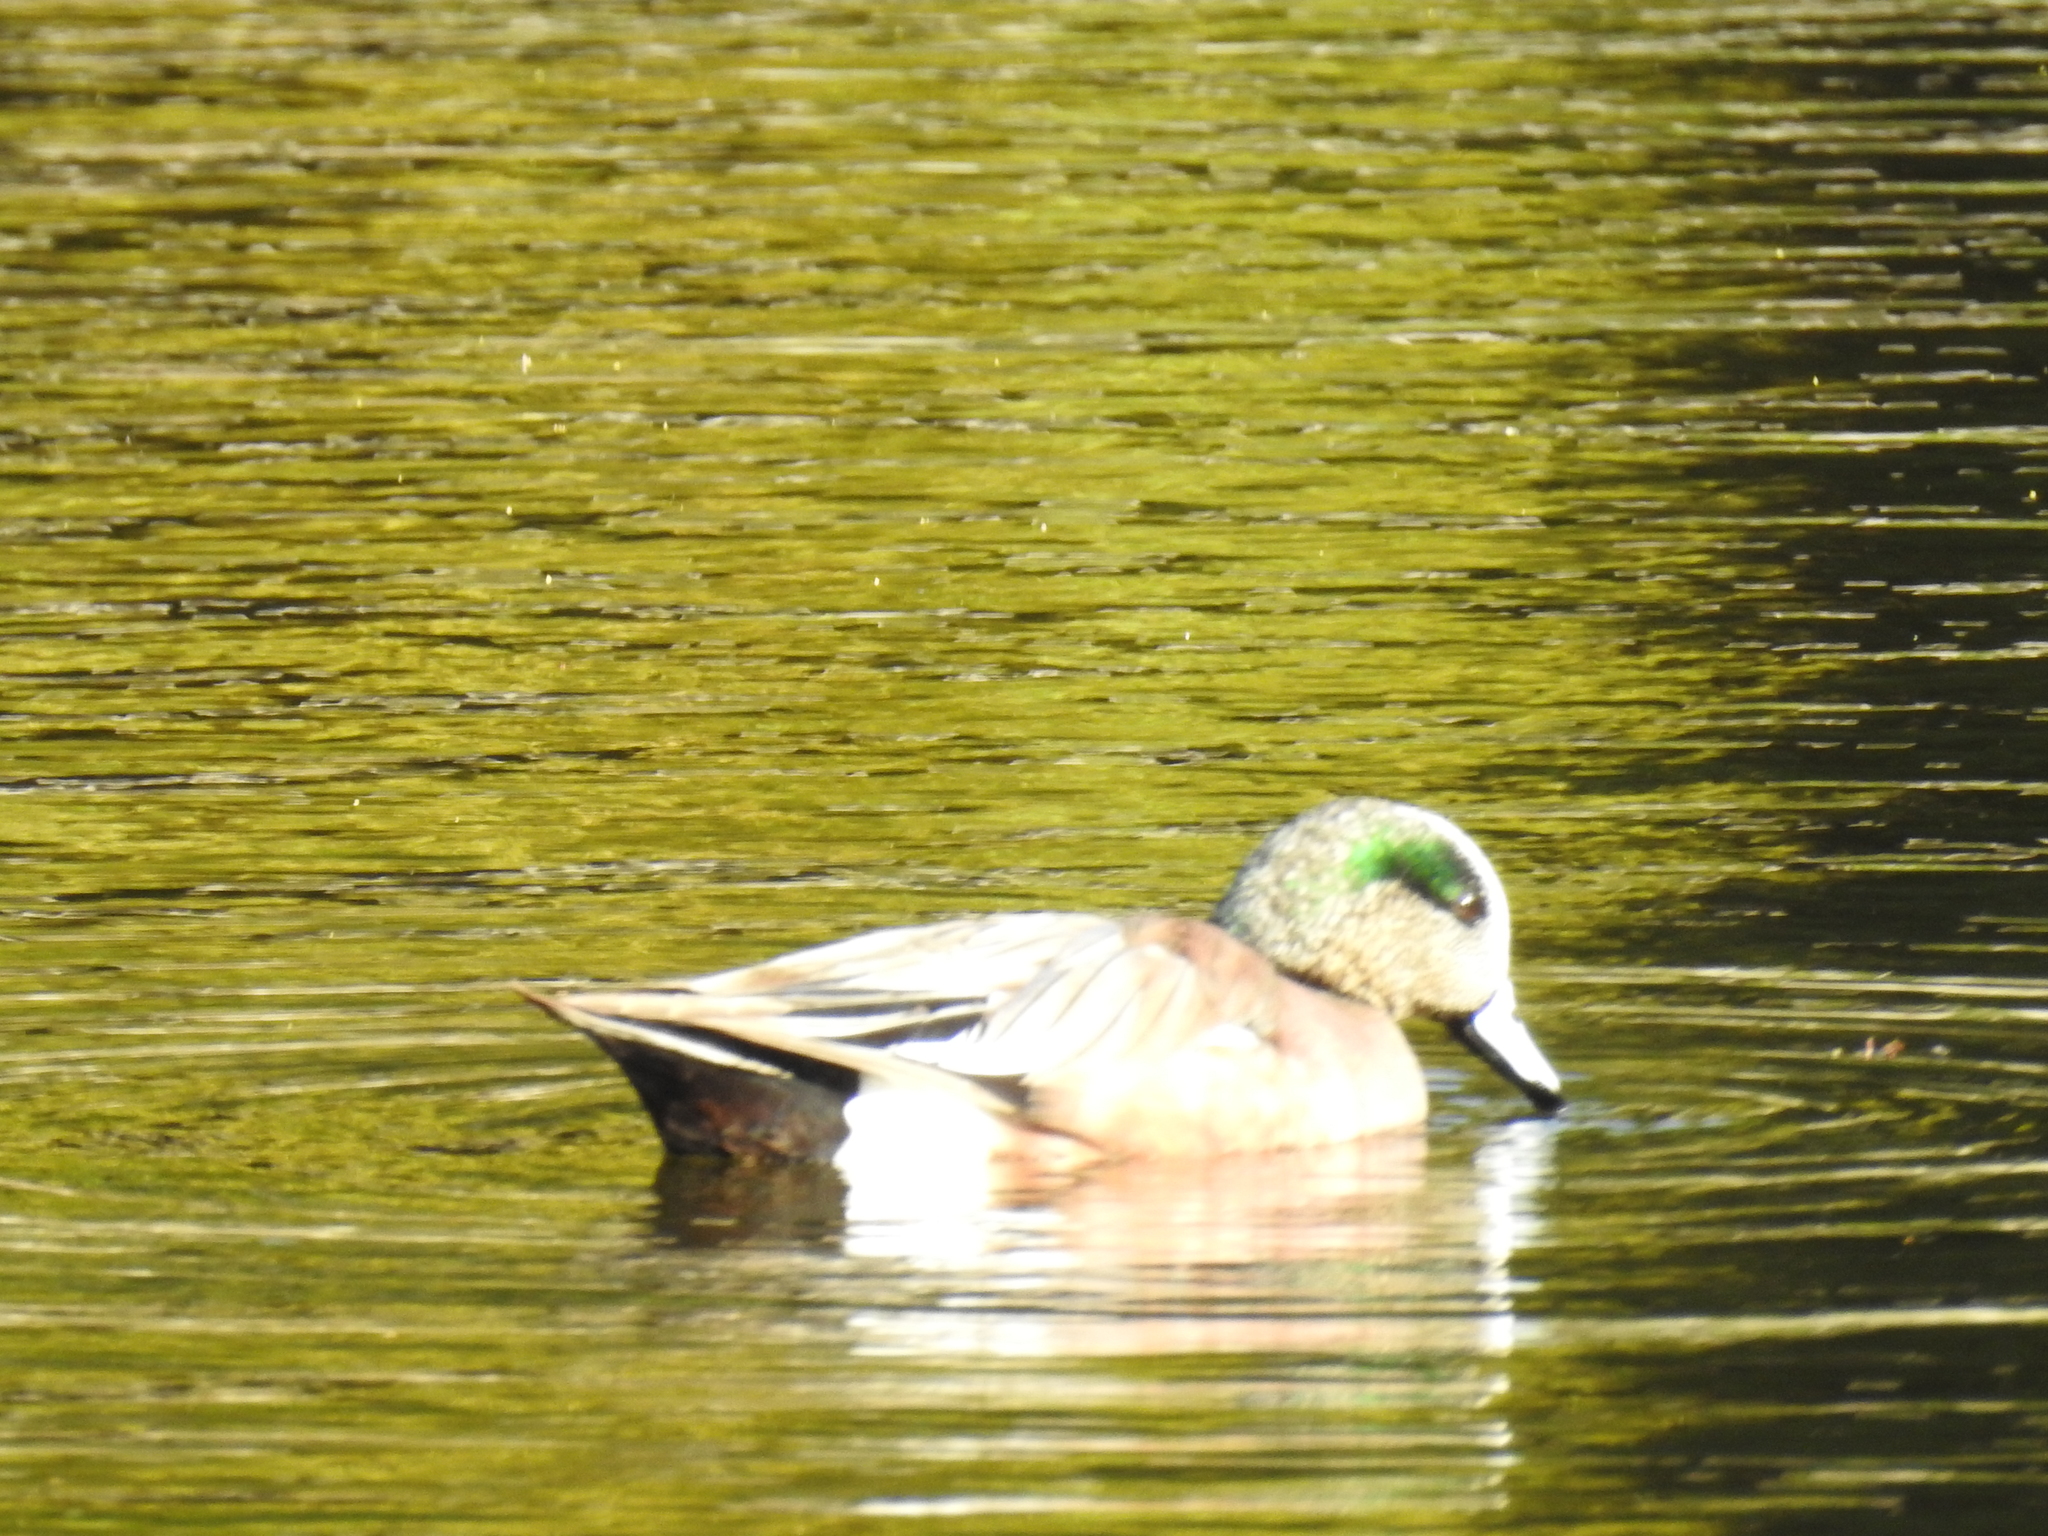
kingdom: Animalia
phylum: Chordata
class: Aves
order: Anseriformes
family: Anatidae
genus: Mareca
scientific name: Mareca americana
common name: American wigeon
